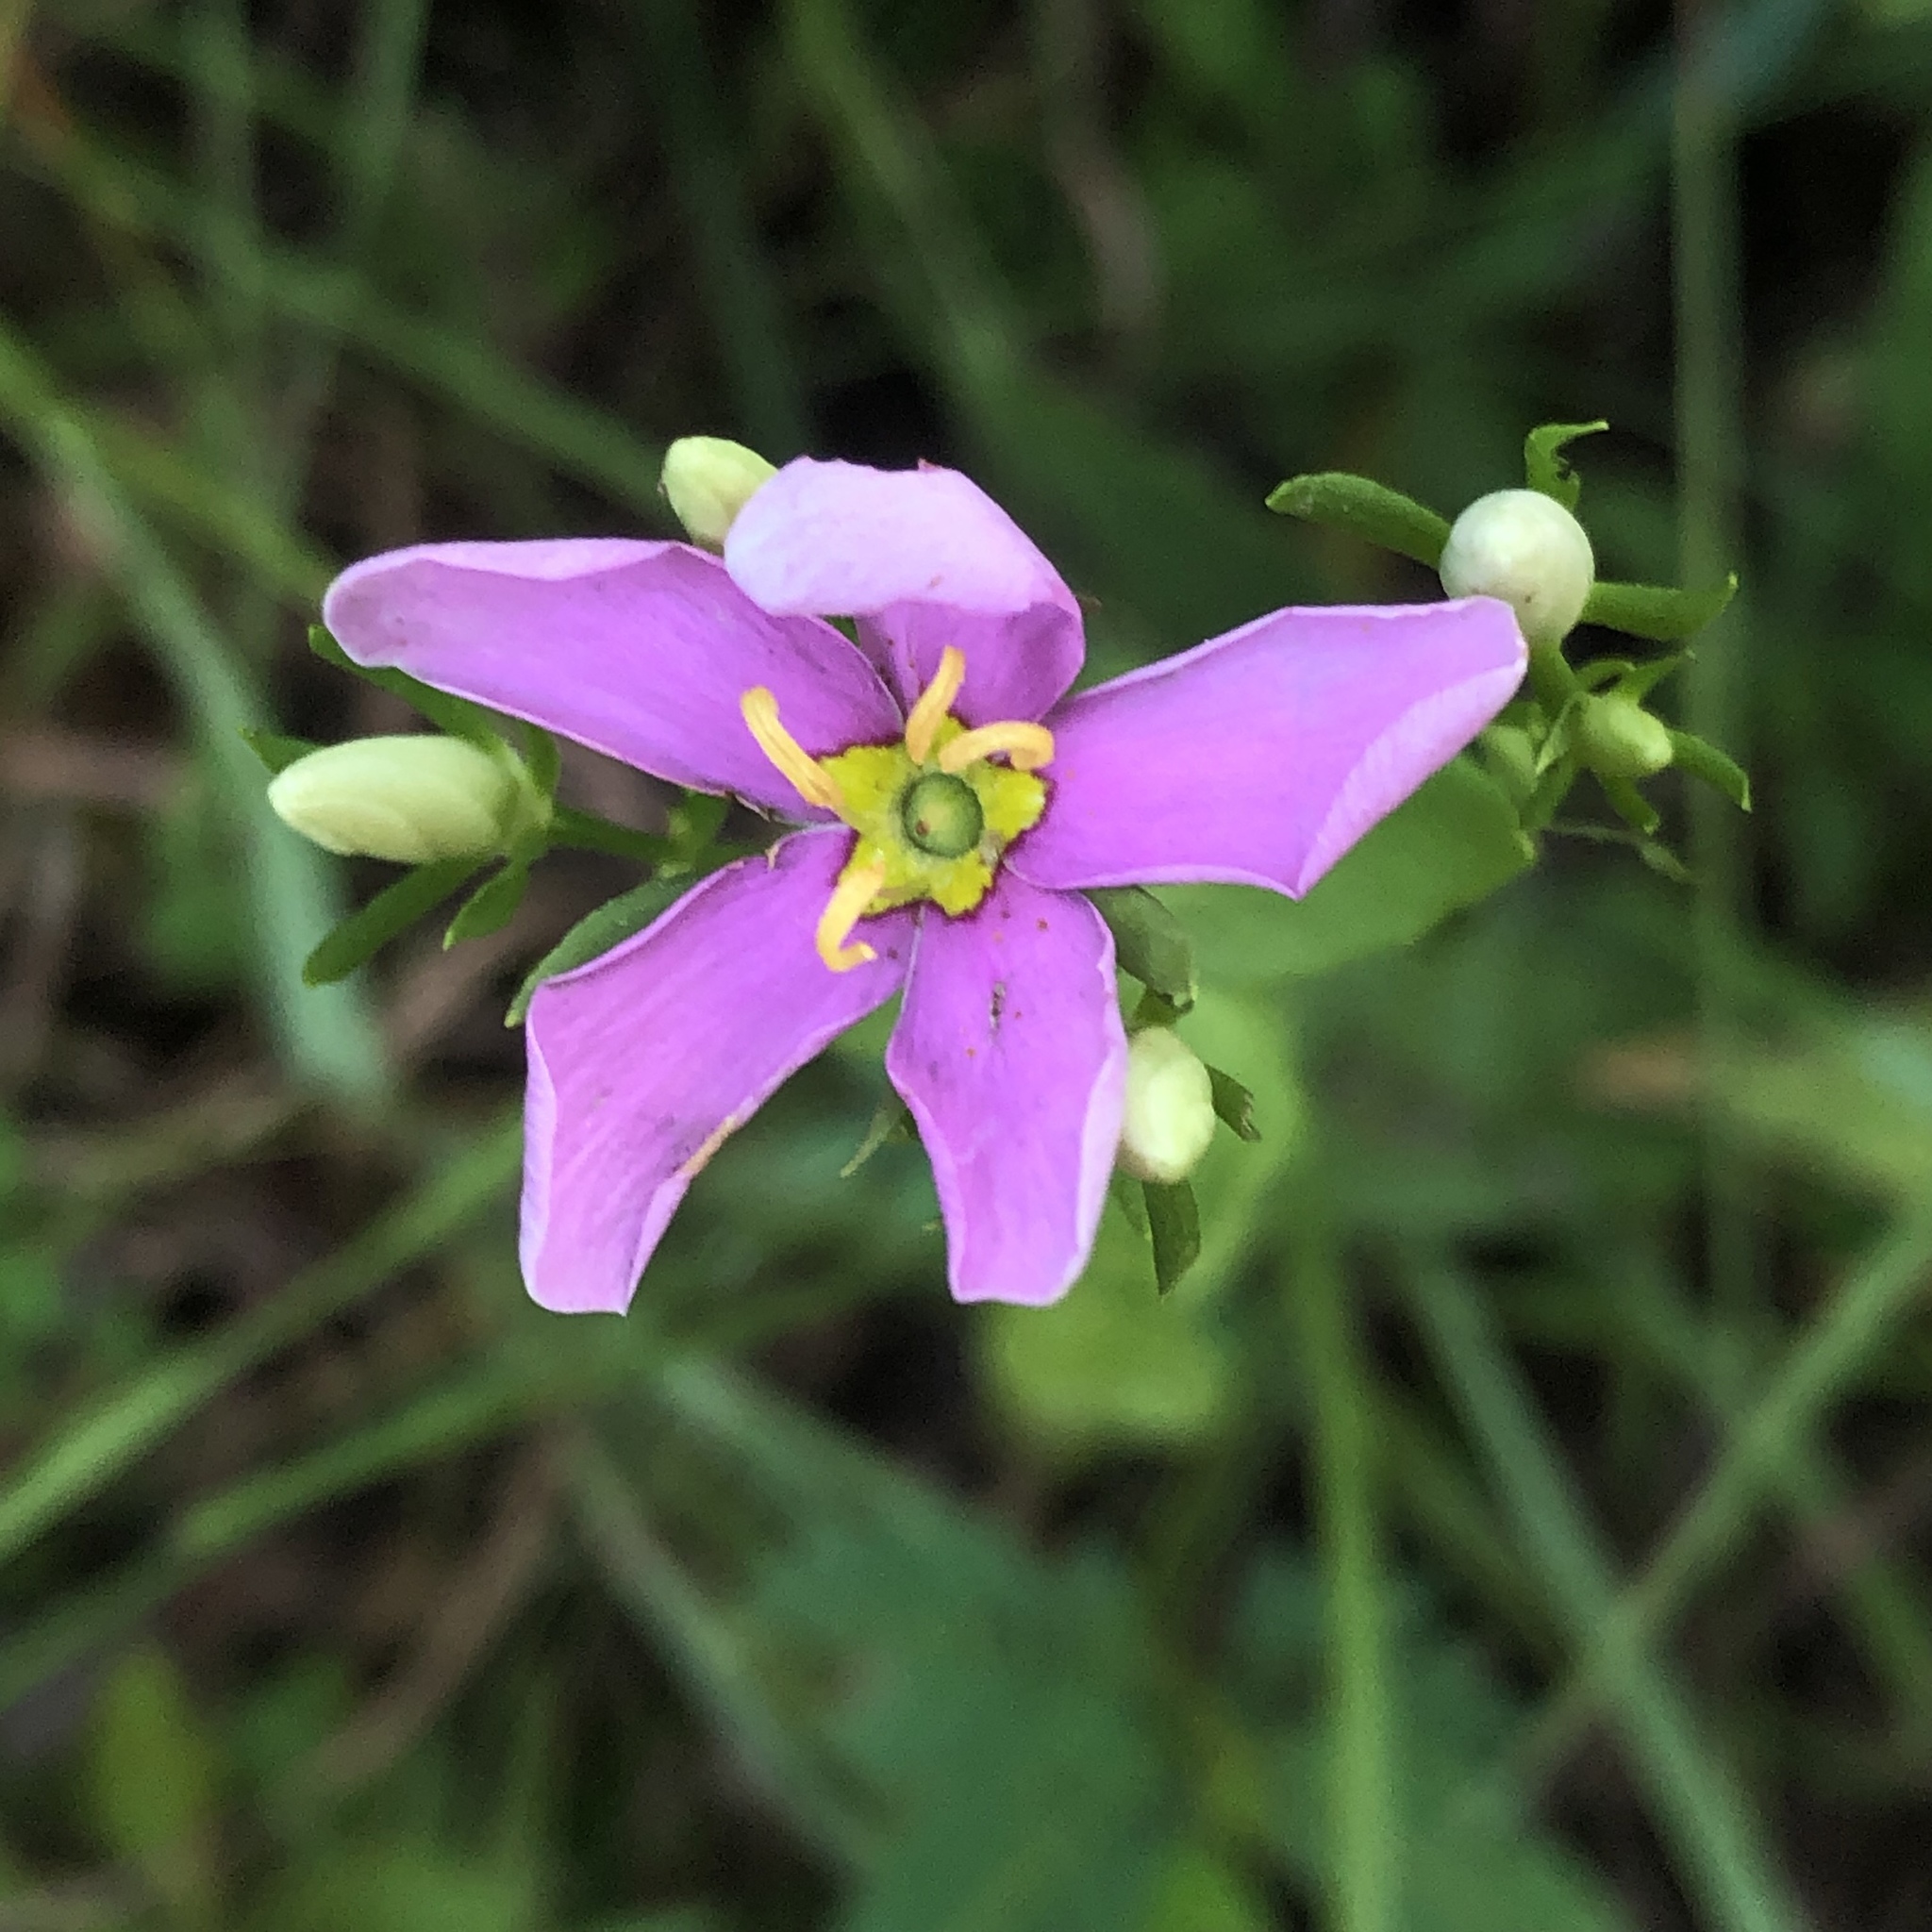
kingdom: Plantae
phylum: Tracheophyta
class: Magnoliopsida
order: Gentianales
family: Gentianaceae
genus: Sabatia
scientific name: Sabatia angularis
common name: Rose-pink
